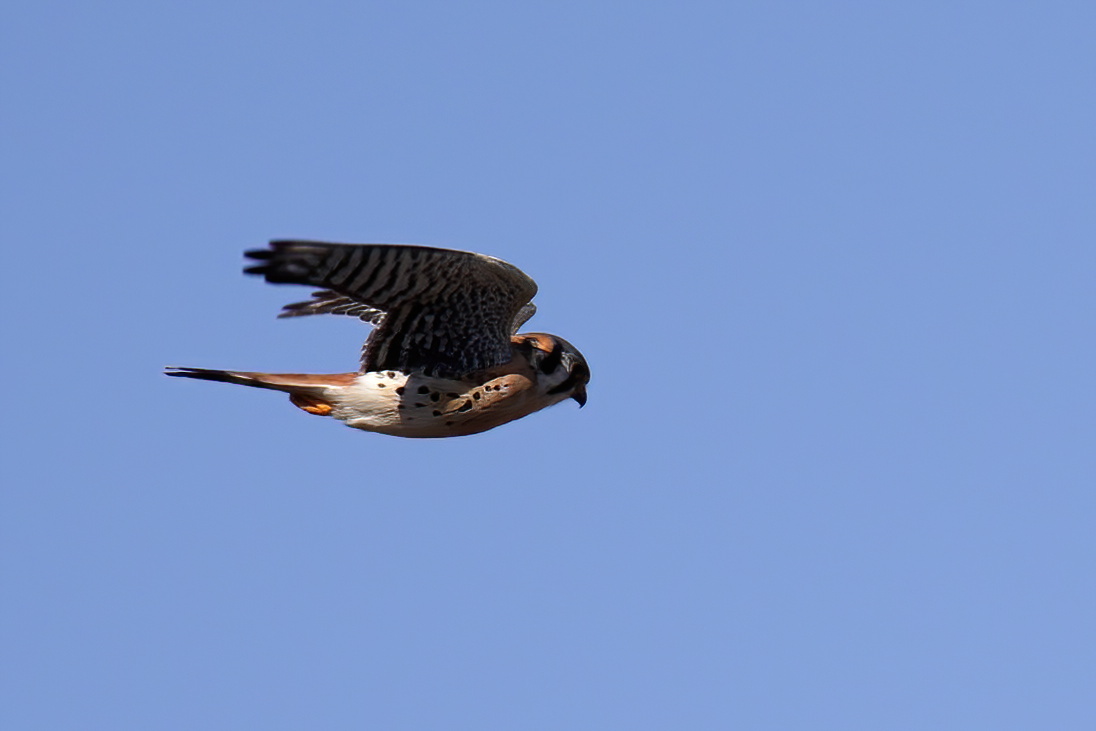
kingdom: Animalia
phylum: Chordata
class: Aves
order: Falconiformes
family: Falconidae
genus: Falco
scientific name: Falco sparverius
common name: American kestrel
